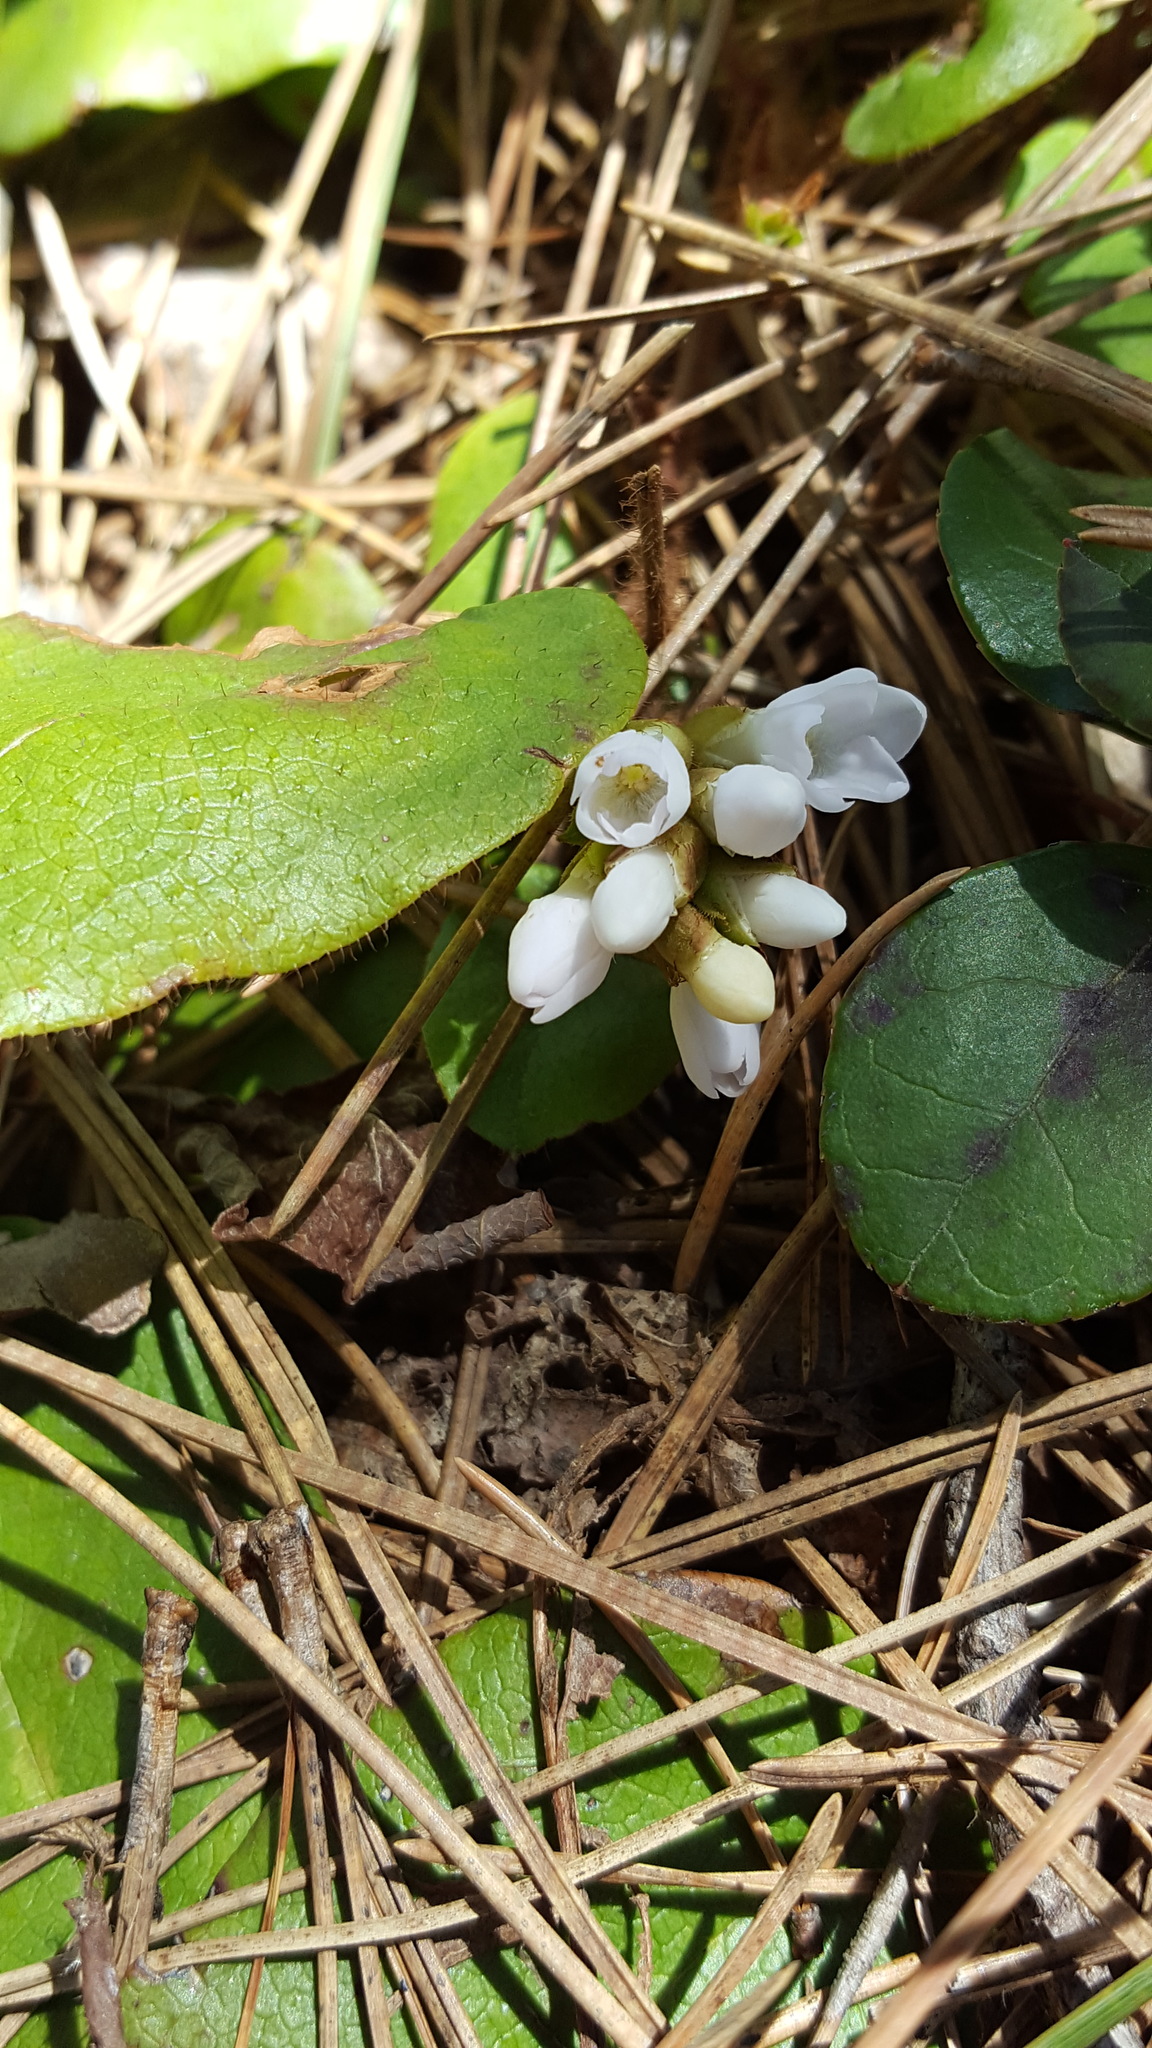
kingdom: Plantae
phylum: Tracheophyta
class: Magnoliopsida
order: Ericales
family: Ericaceae
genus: Epigaea
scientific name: Epigaea repens
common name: Gravelroot
